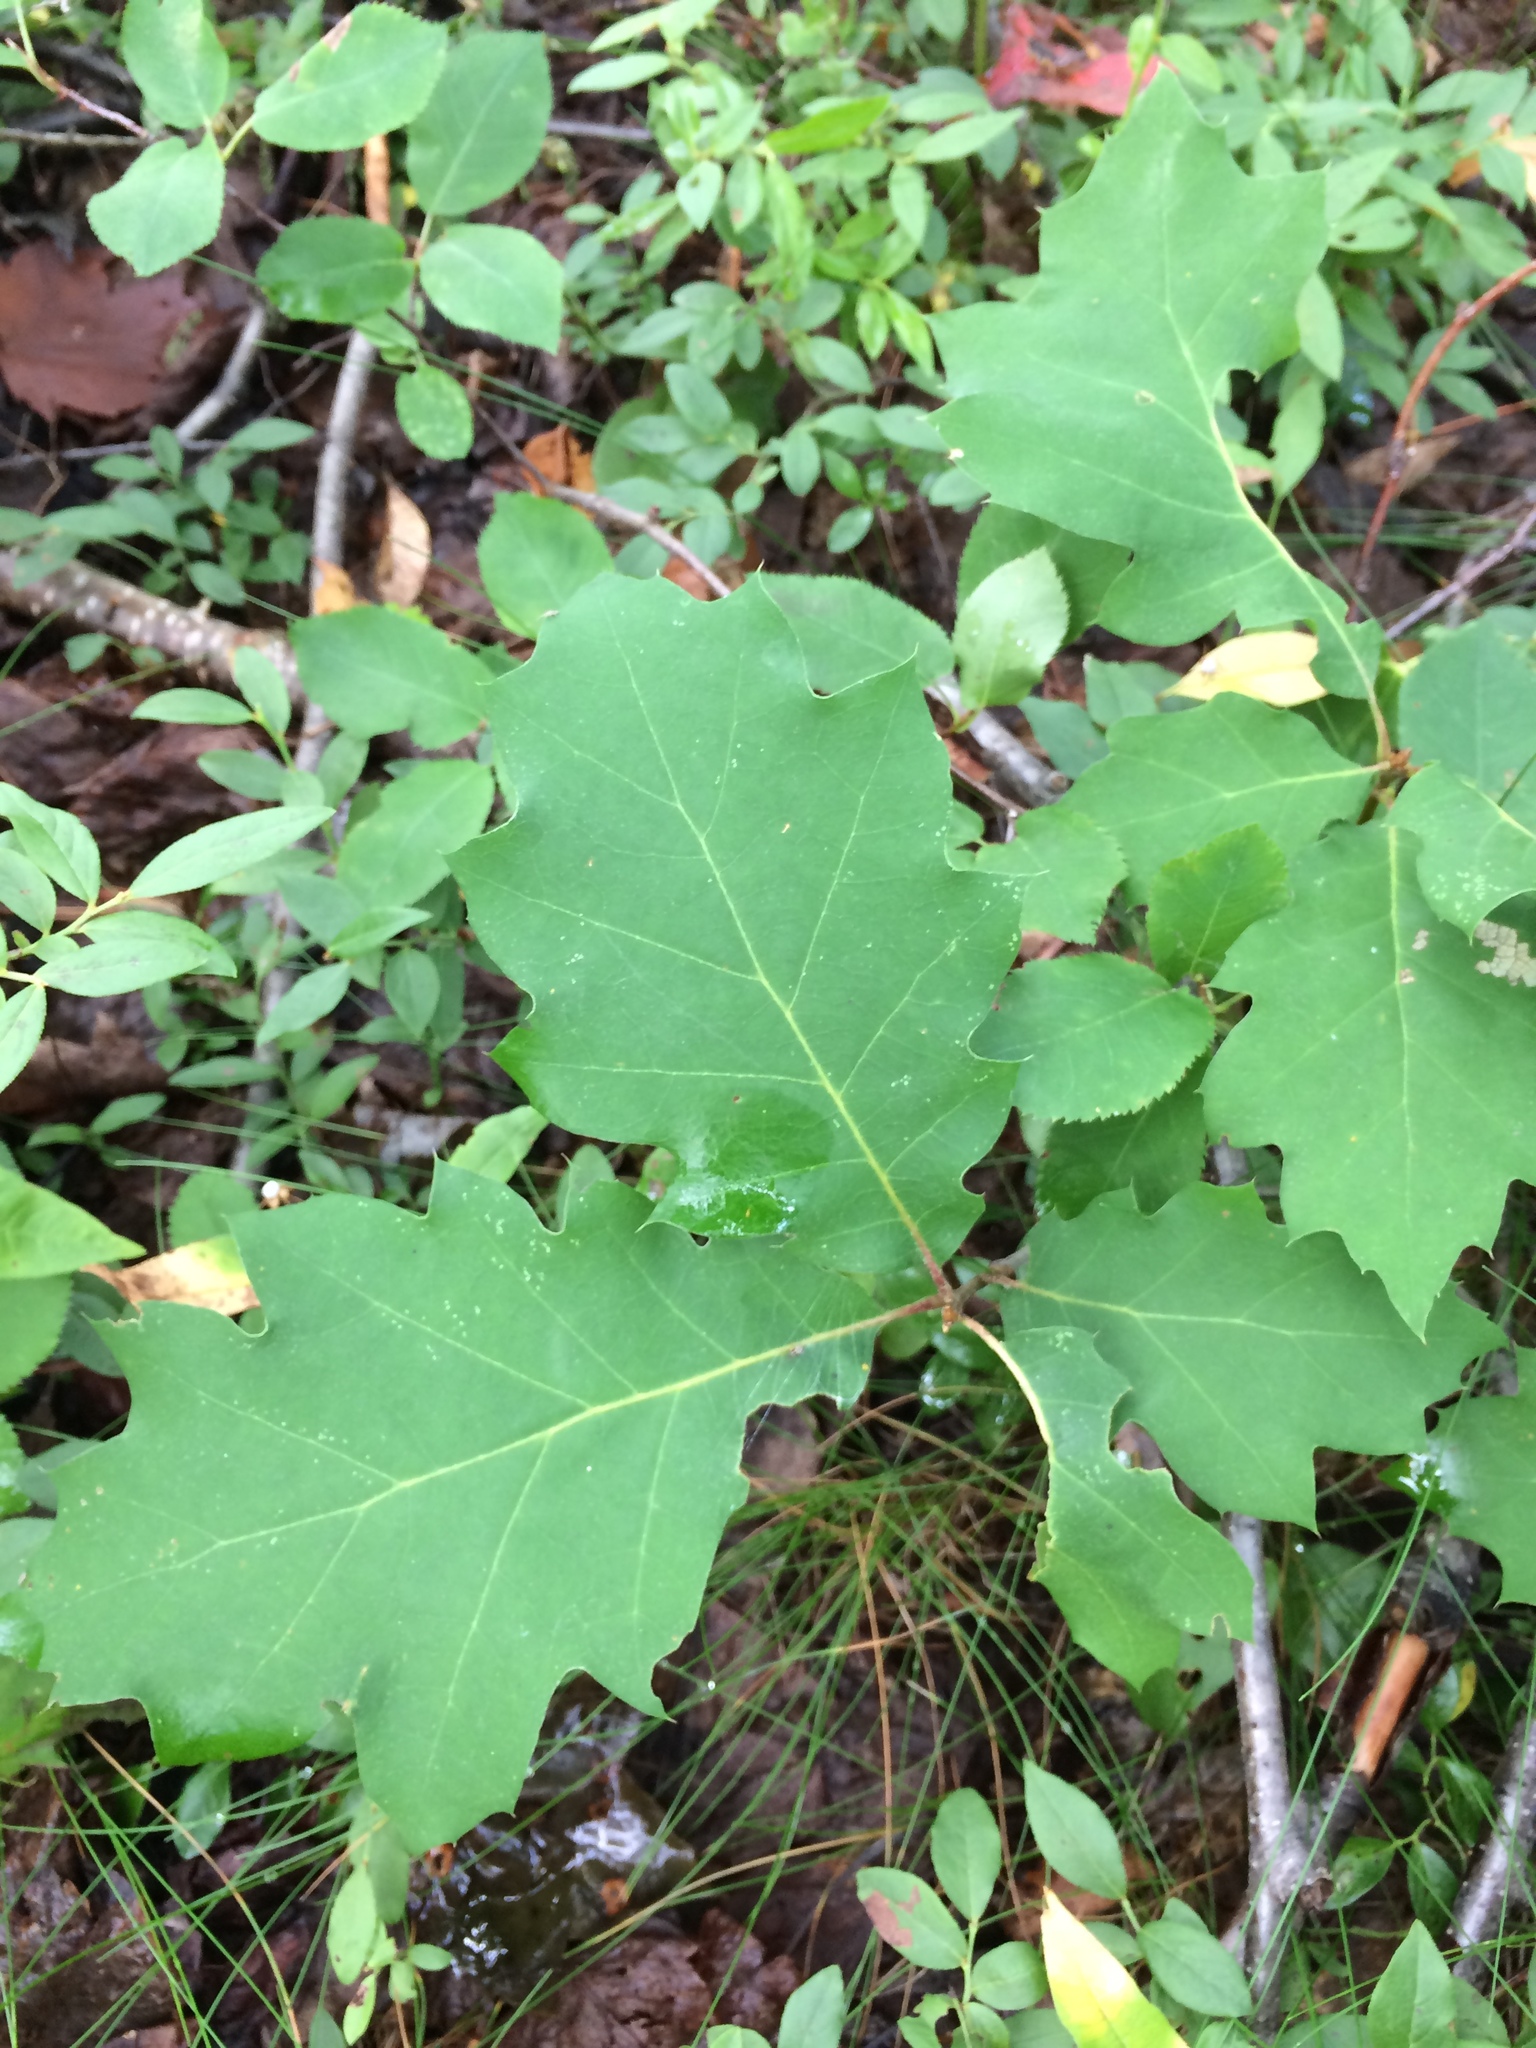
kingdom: Plantae
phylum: Tracheophyta
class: Magnoliopsida
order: Fagales
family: Fagaceae
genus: Quercus
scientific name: Quercus rubra
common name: Red oak
